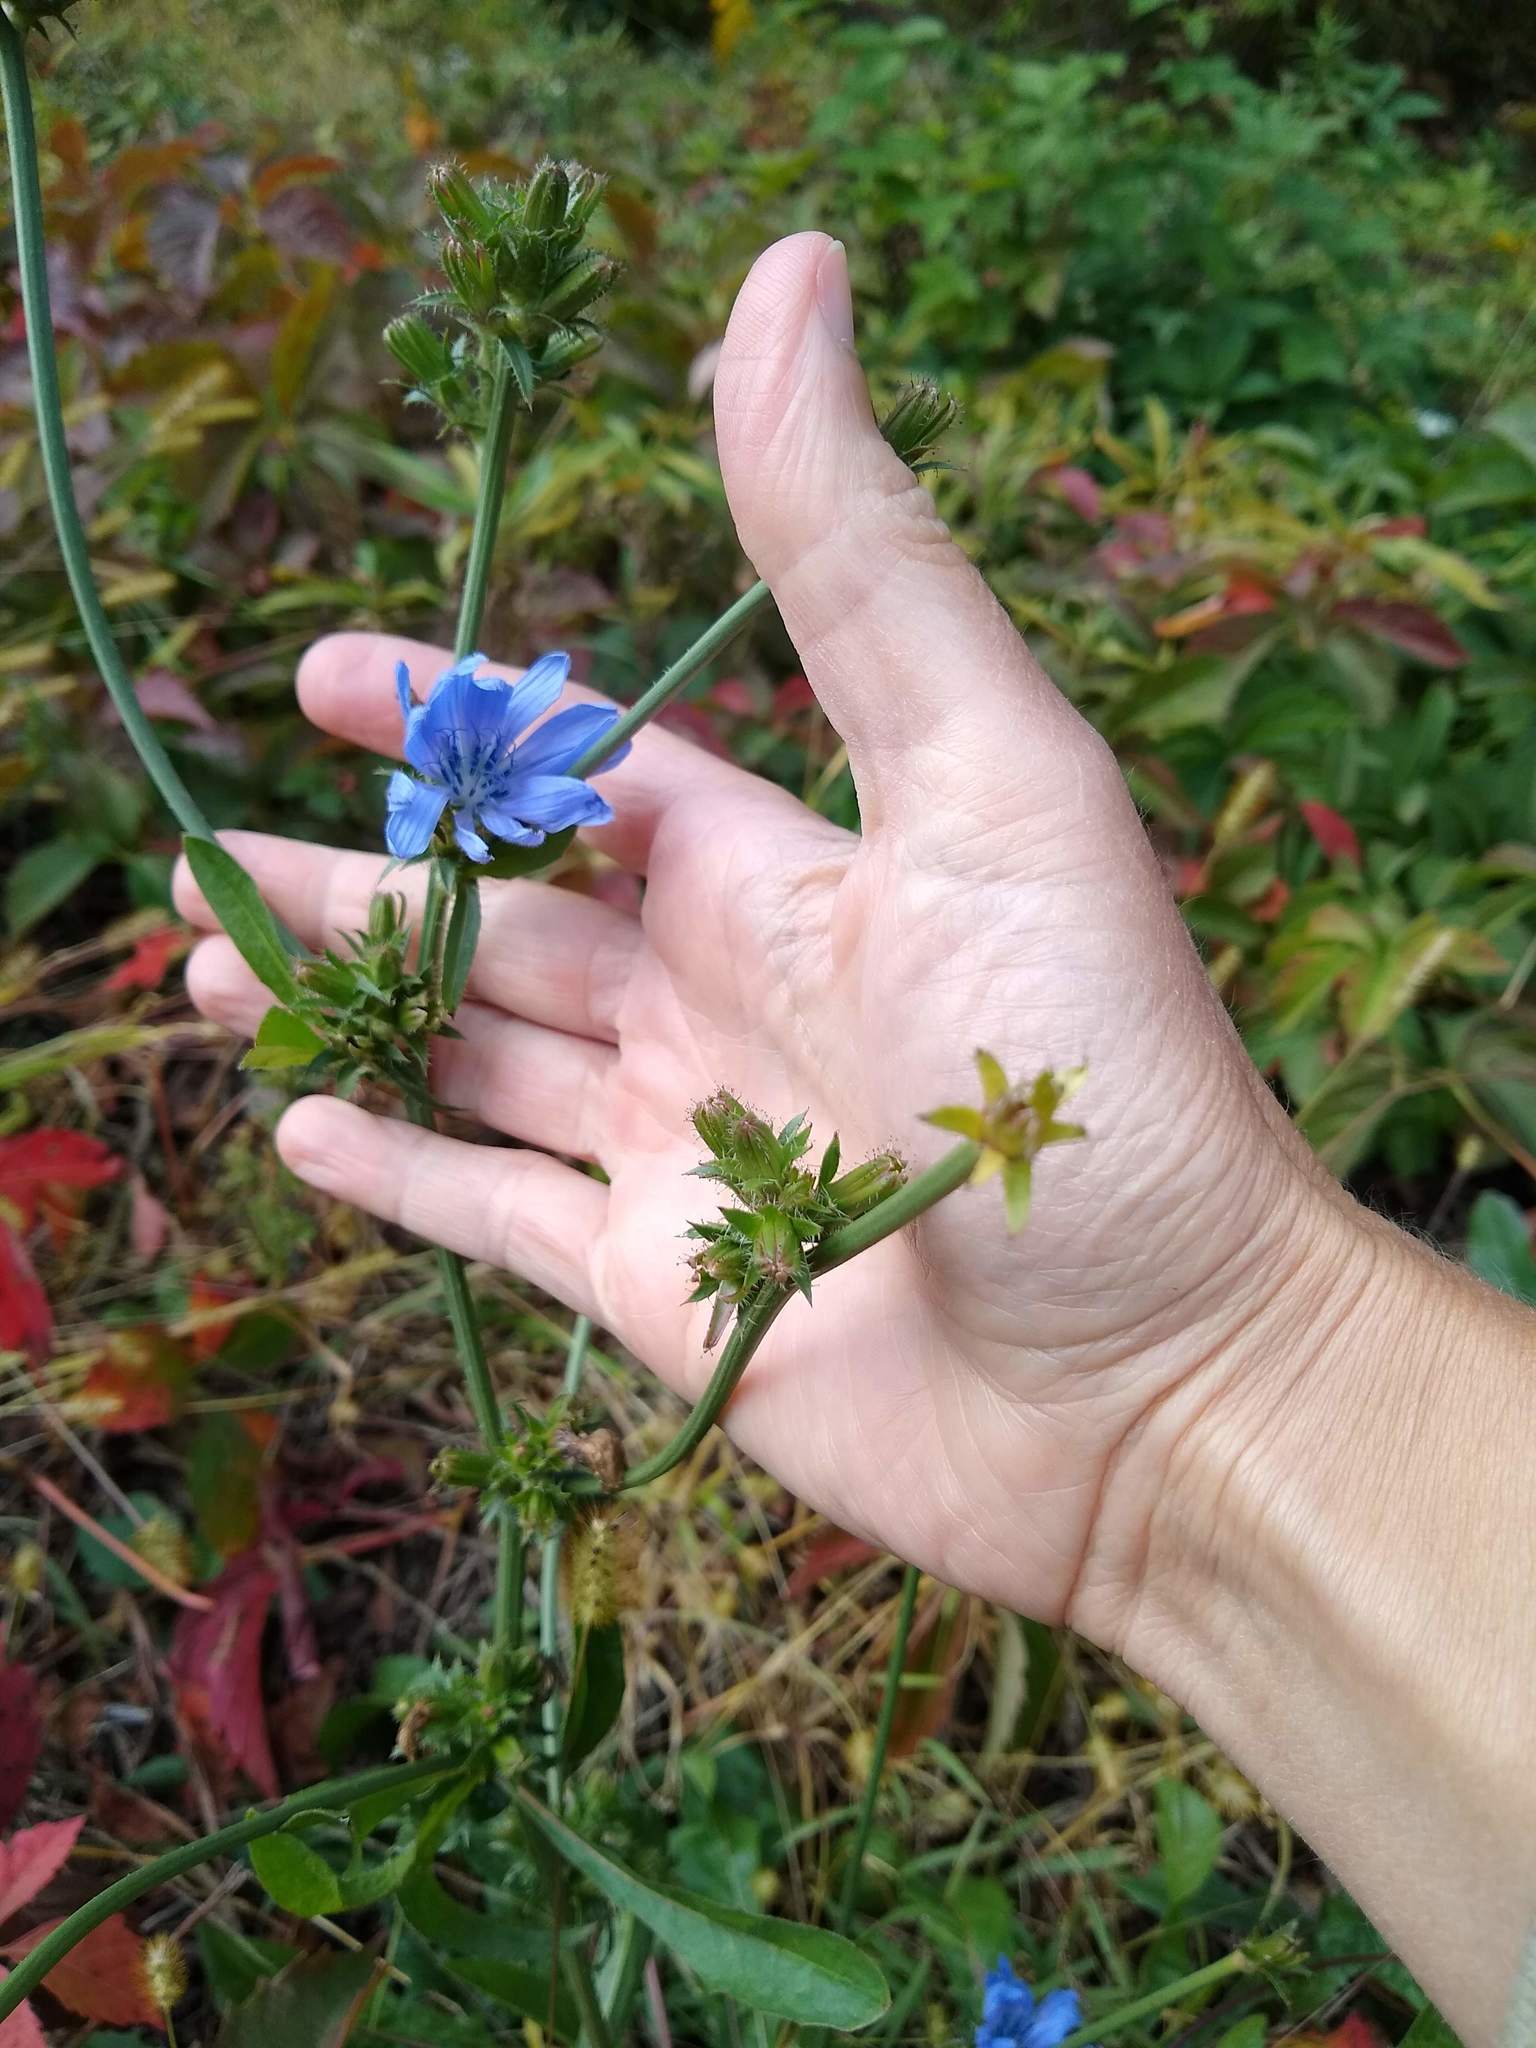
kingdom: Plantae
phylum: Tracheophyta
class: Magnoliopsida
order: Asterales
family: Asteraceae
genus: Cichorium
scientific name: Cichorium intybus
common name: Chicory
